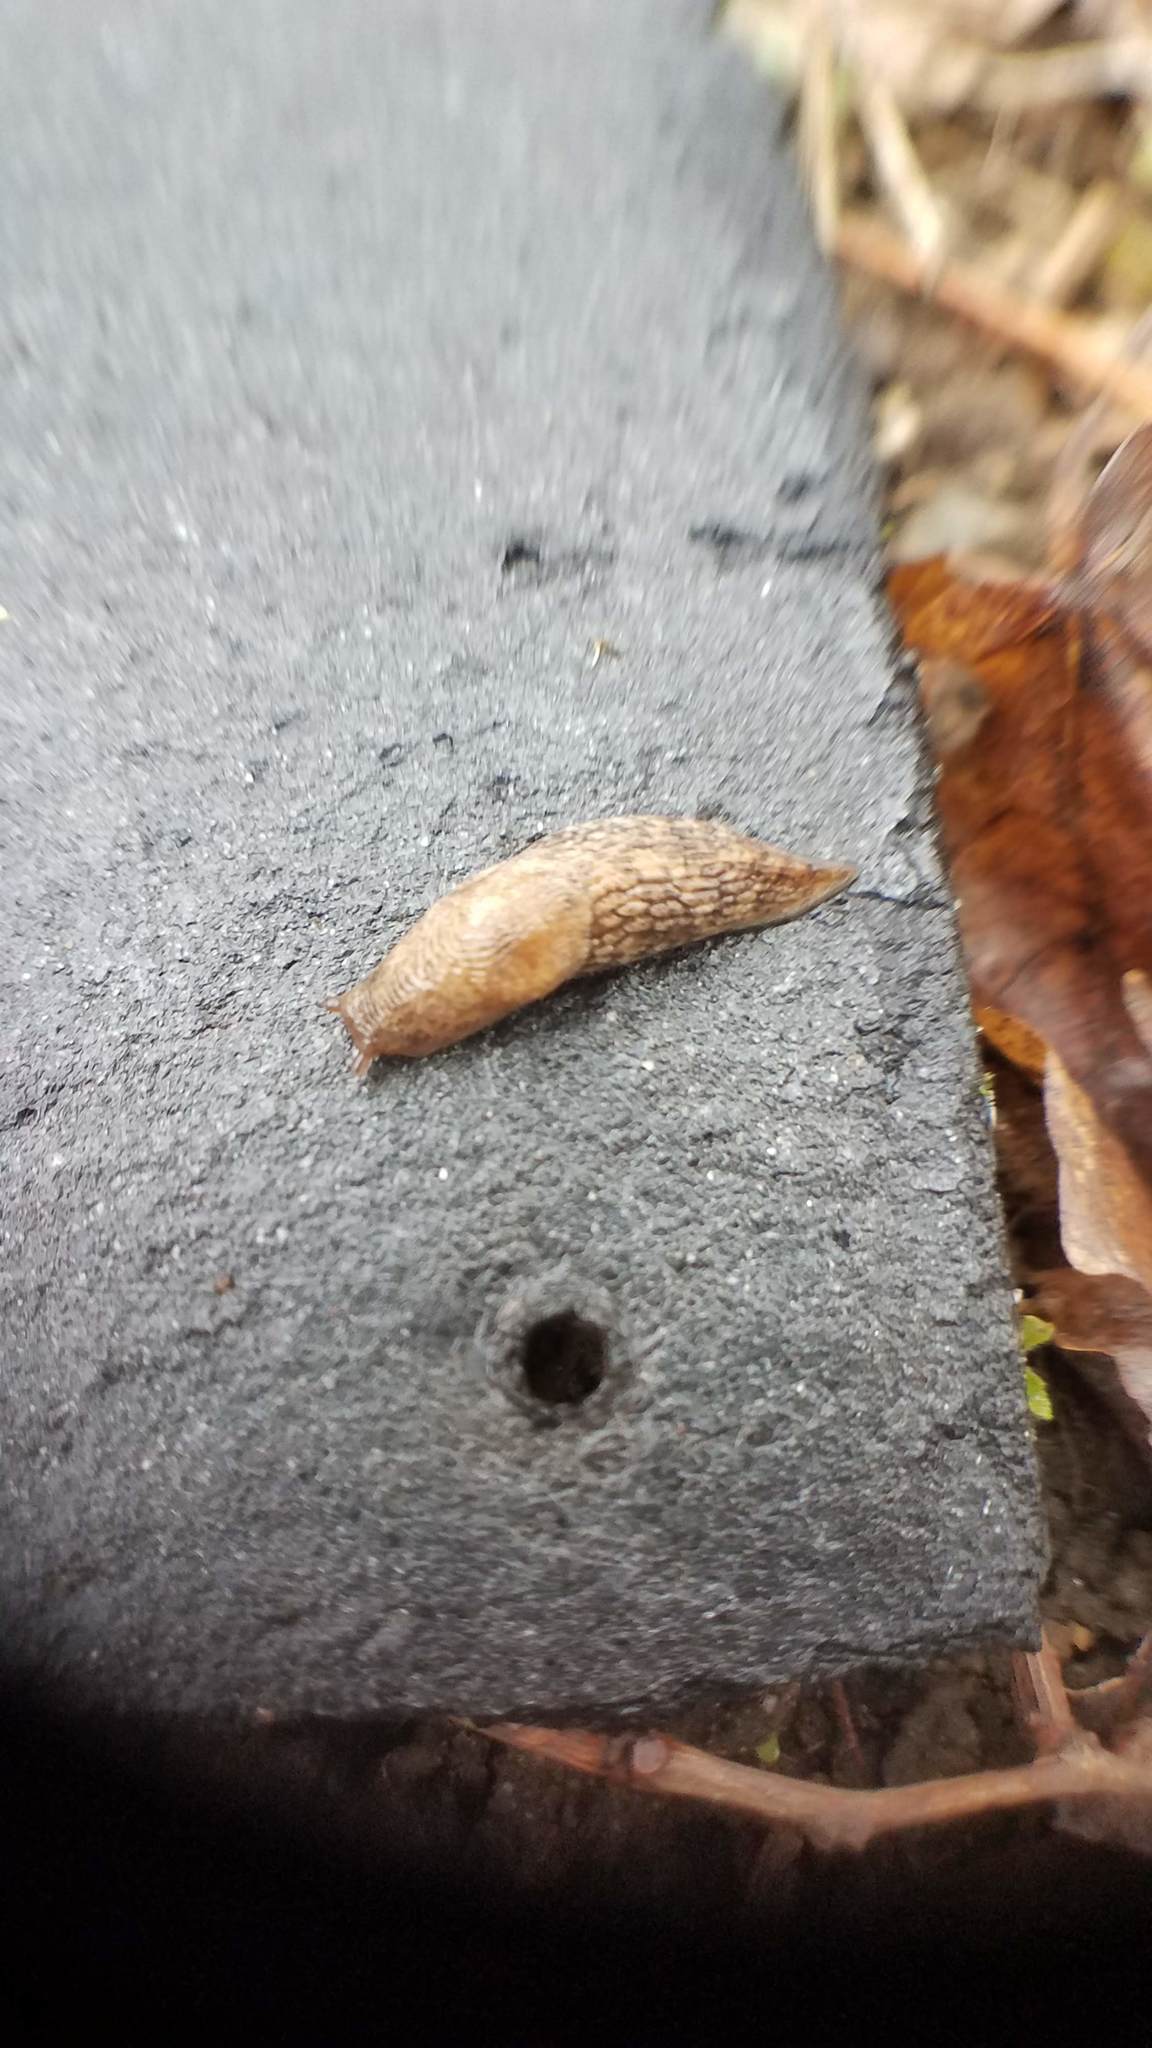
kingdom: Animalia
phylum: Mollusca
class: Gastropoda
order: Stylommatophora
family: Agriolimacidae
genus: Deroceras
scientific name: Deroceras reticulatum
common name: Gray field slug
